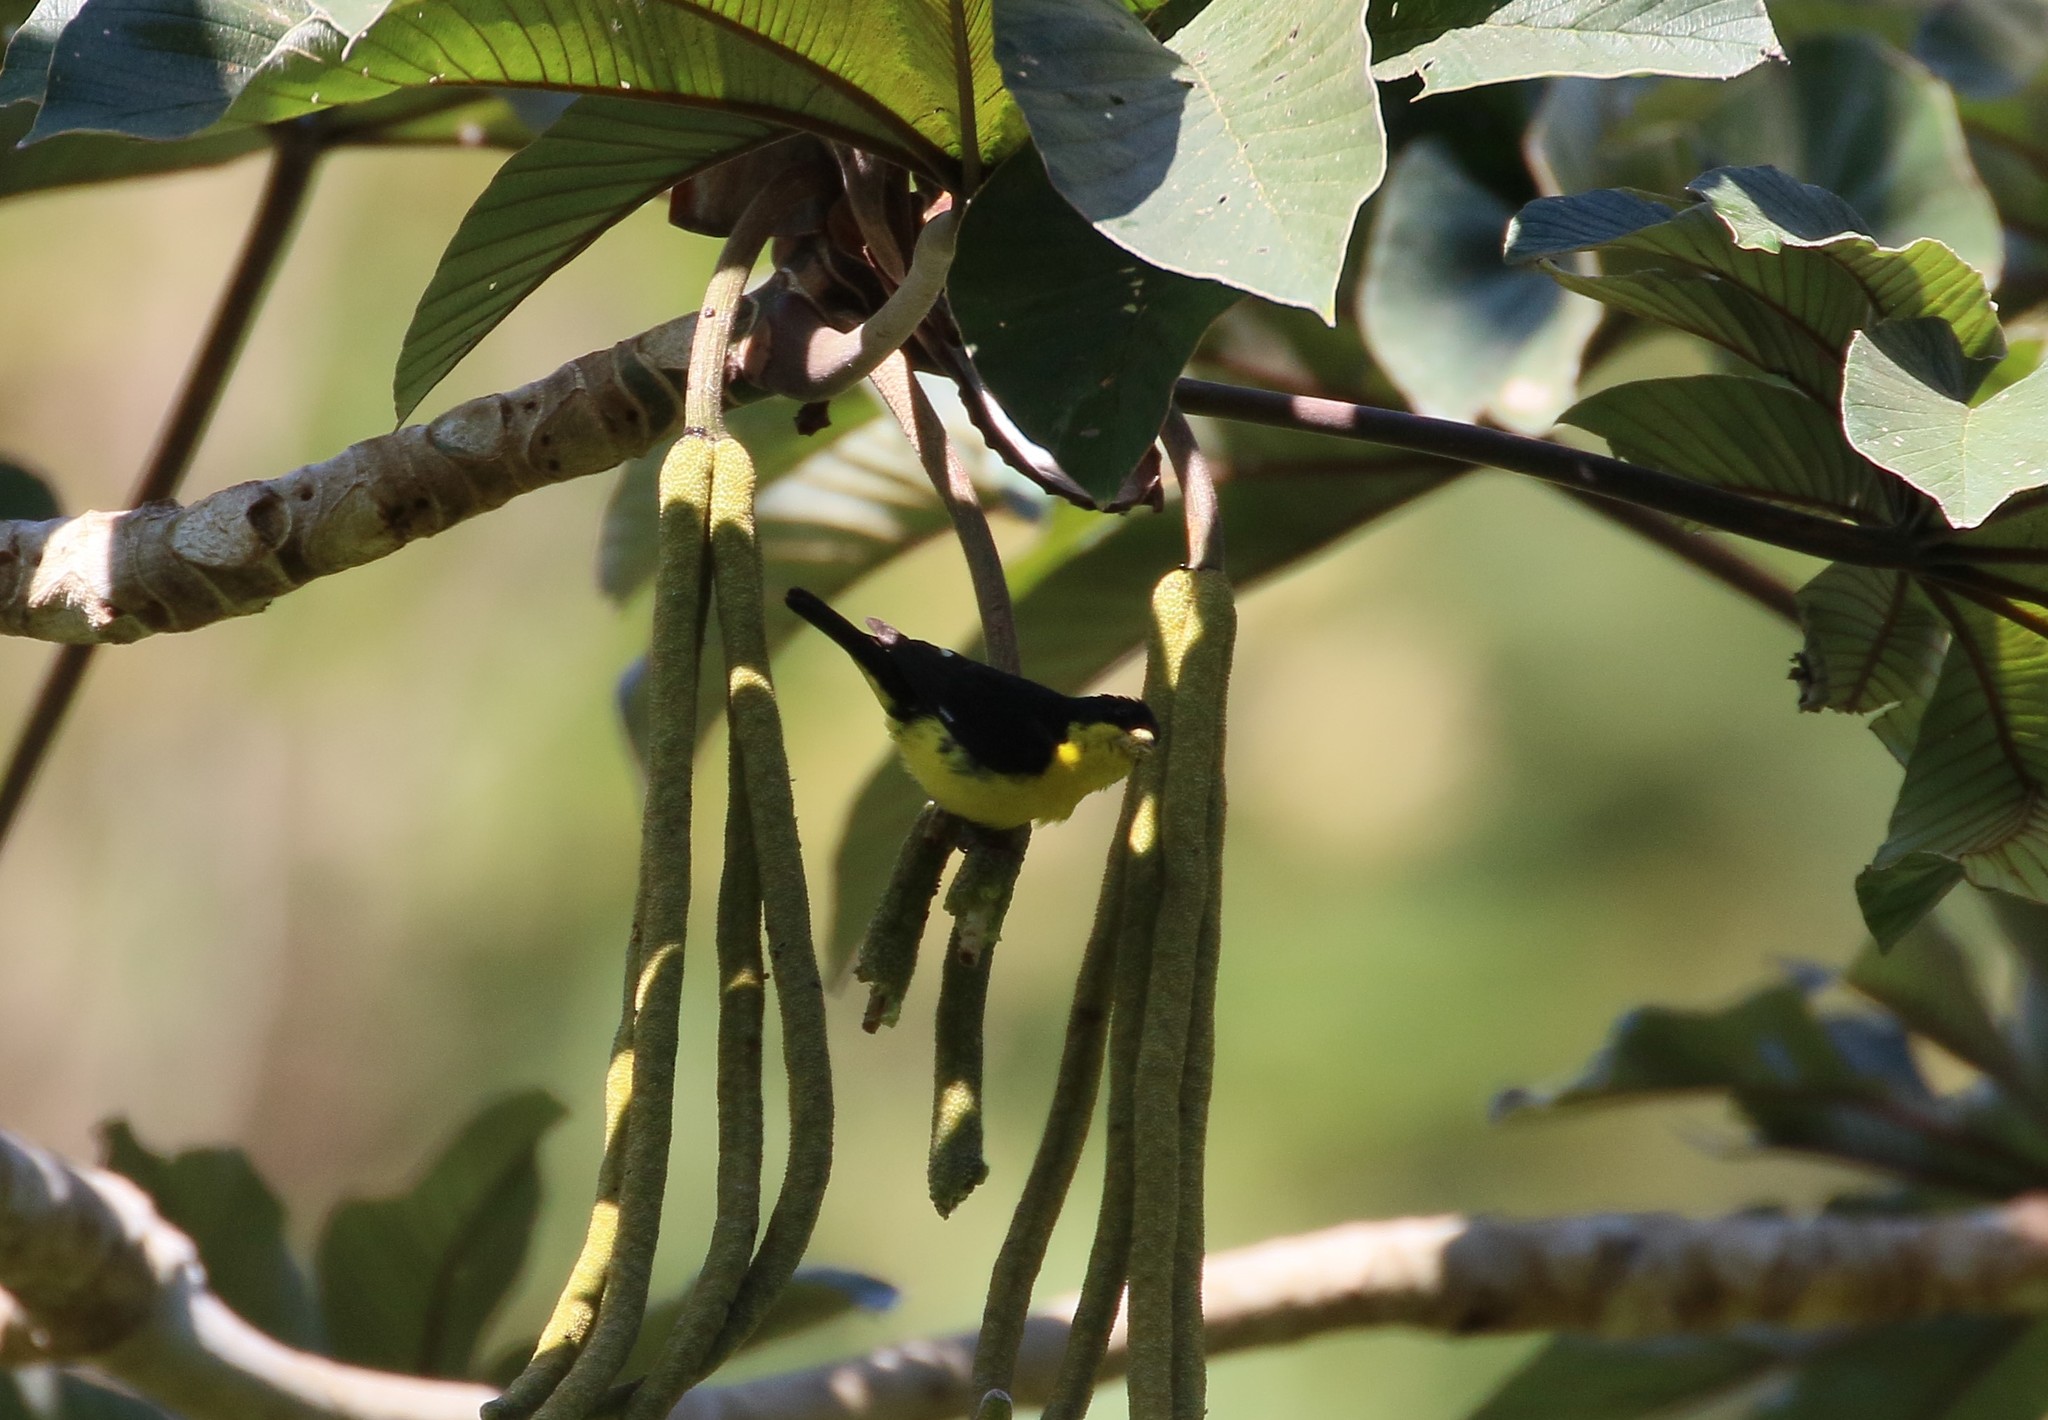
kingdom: Animalia
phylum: Chordata
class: Aves
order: Passeriformes
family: Fringillidae
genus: Spinus
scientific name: Spinus psaltria
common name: Lesser goldfinch
